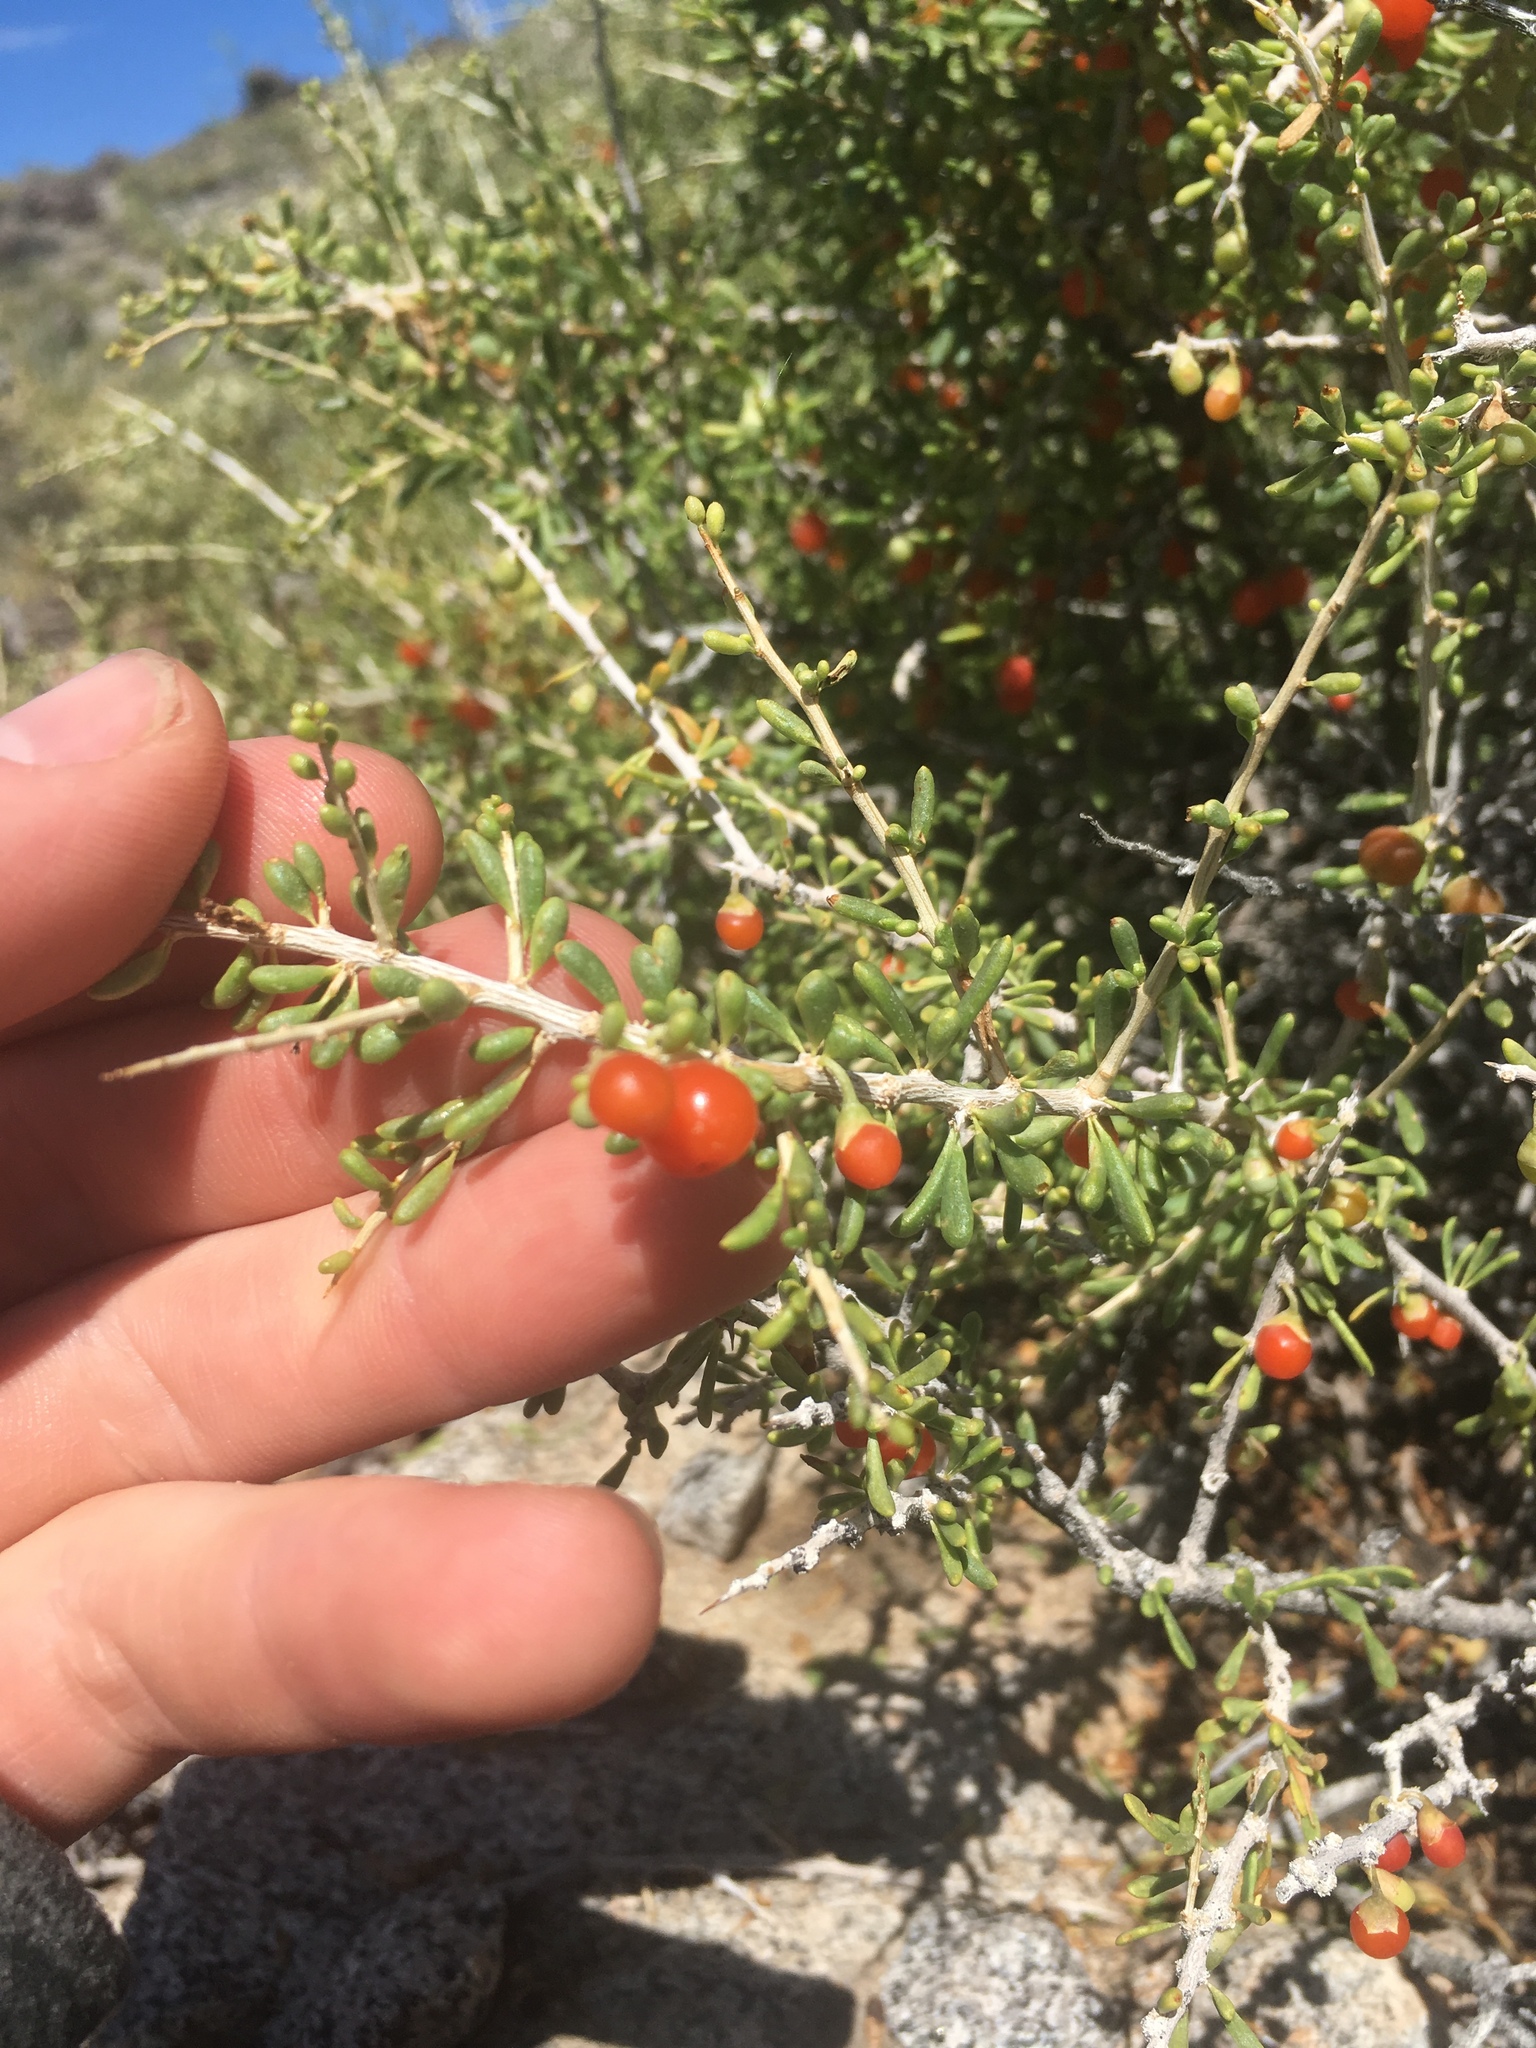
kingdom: Plantae
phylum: Tracheophyta
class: Magnoliopsida
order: Solanales
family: Solanaceae
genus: Lycium
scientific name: Lycium andersonii
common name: Water-jacket
